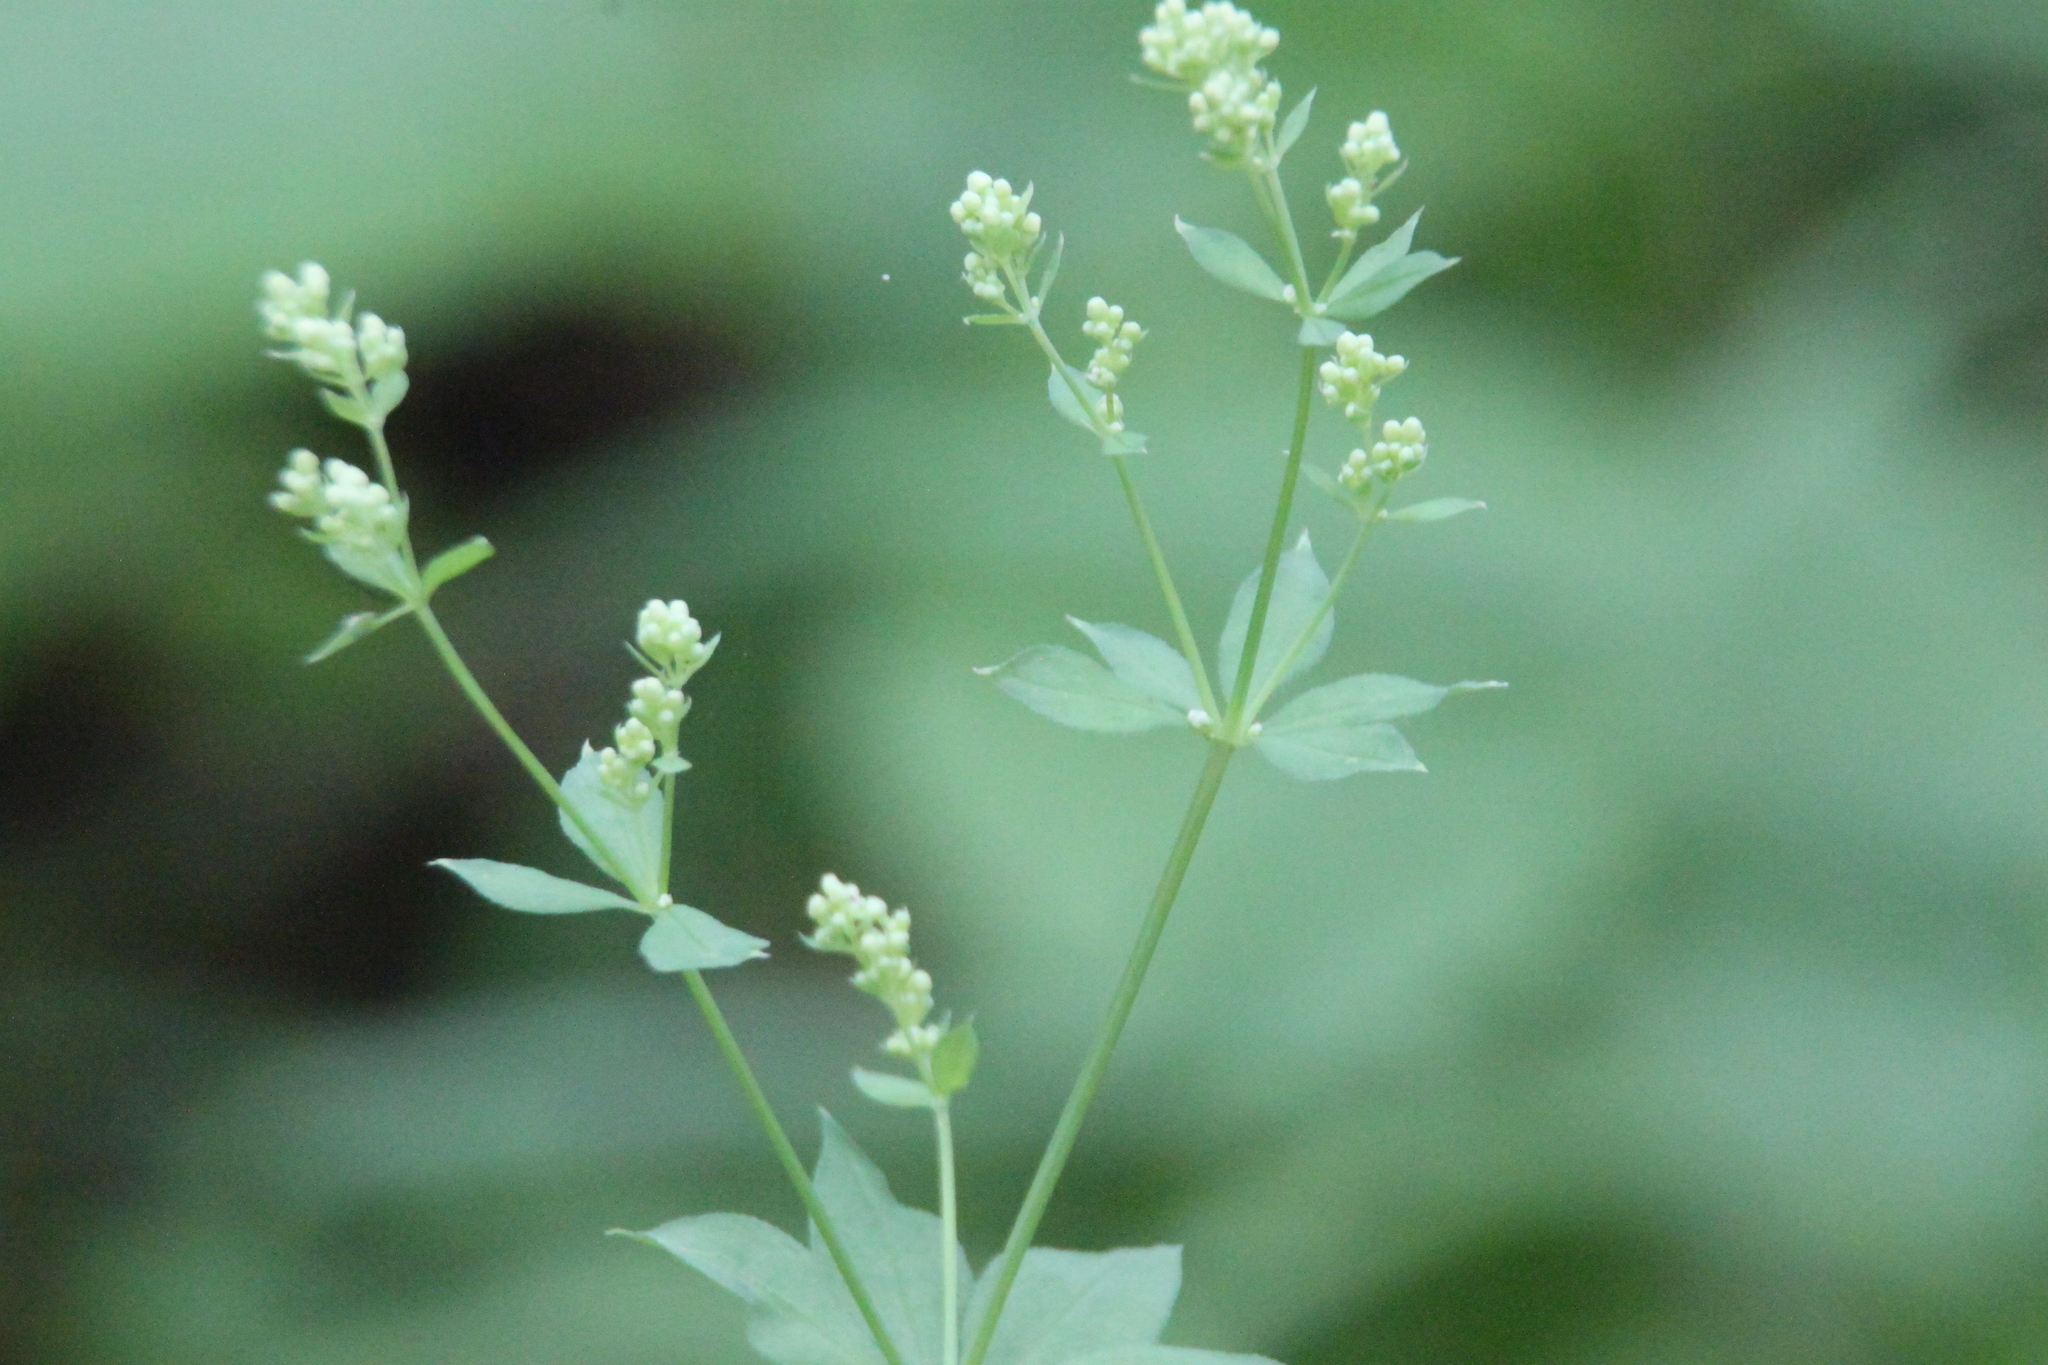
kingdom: Plantae
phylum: Tracheophyta
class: Magnoliopsida
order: Gentianales
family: Rubiaceae
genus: Galium
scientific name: Galium intermedium
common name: Bedstraw
